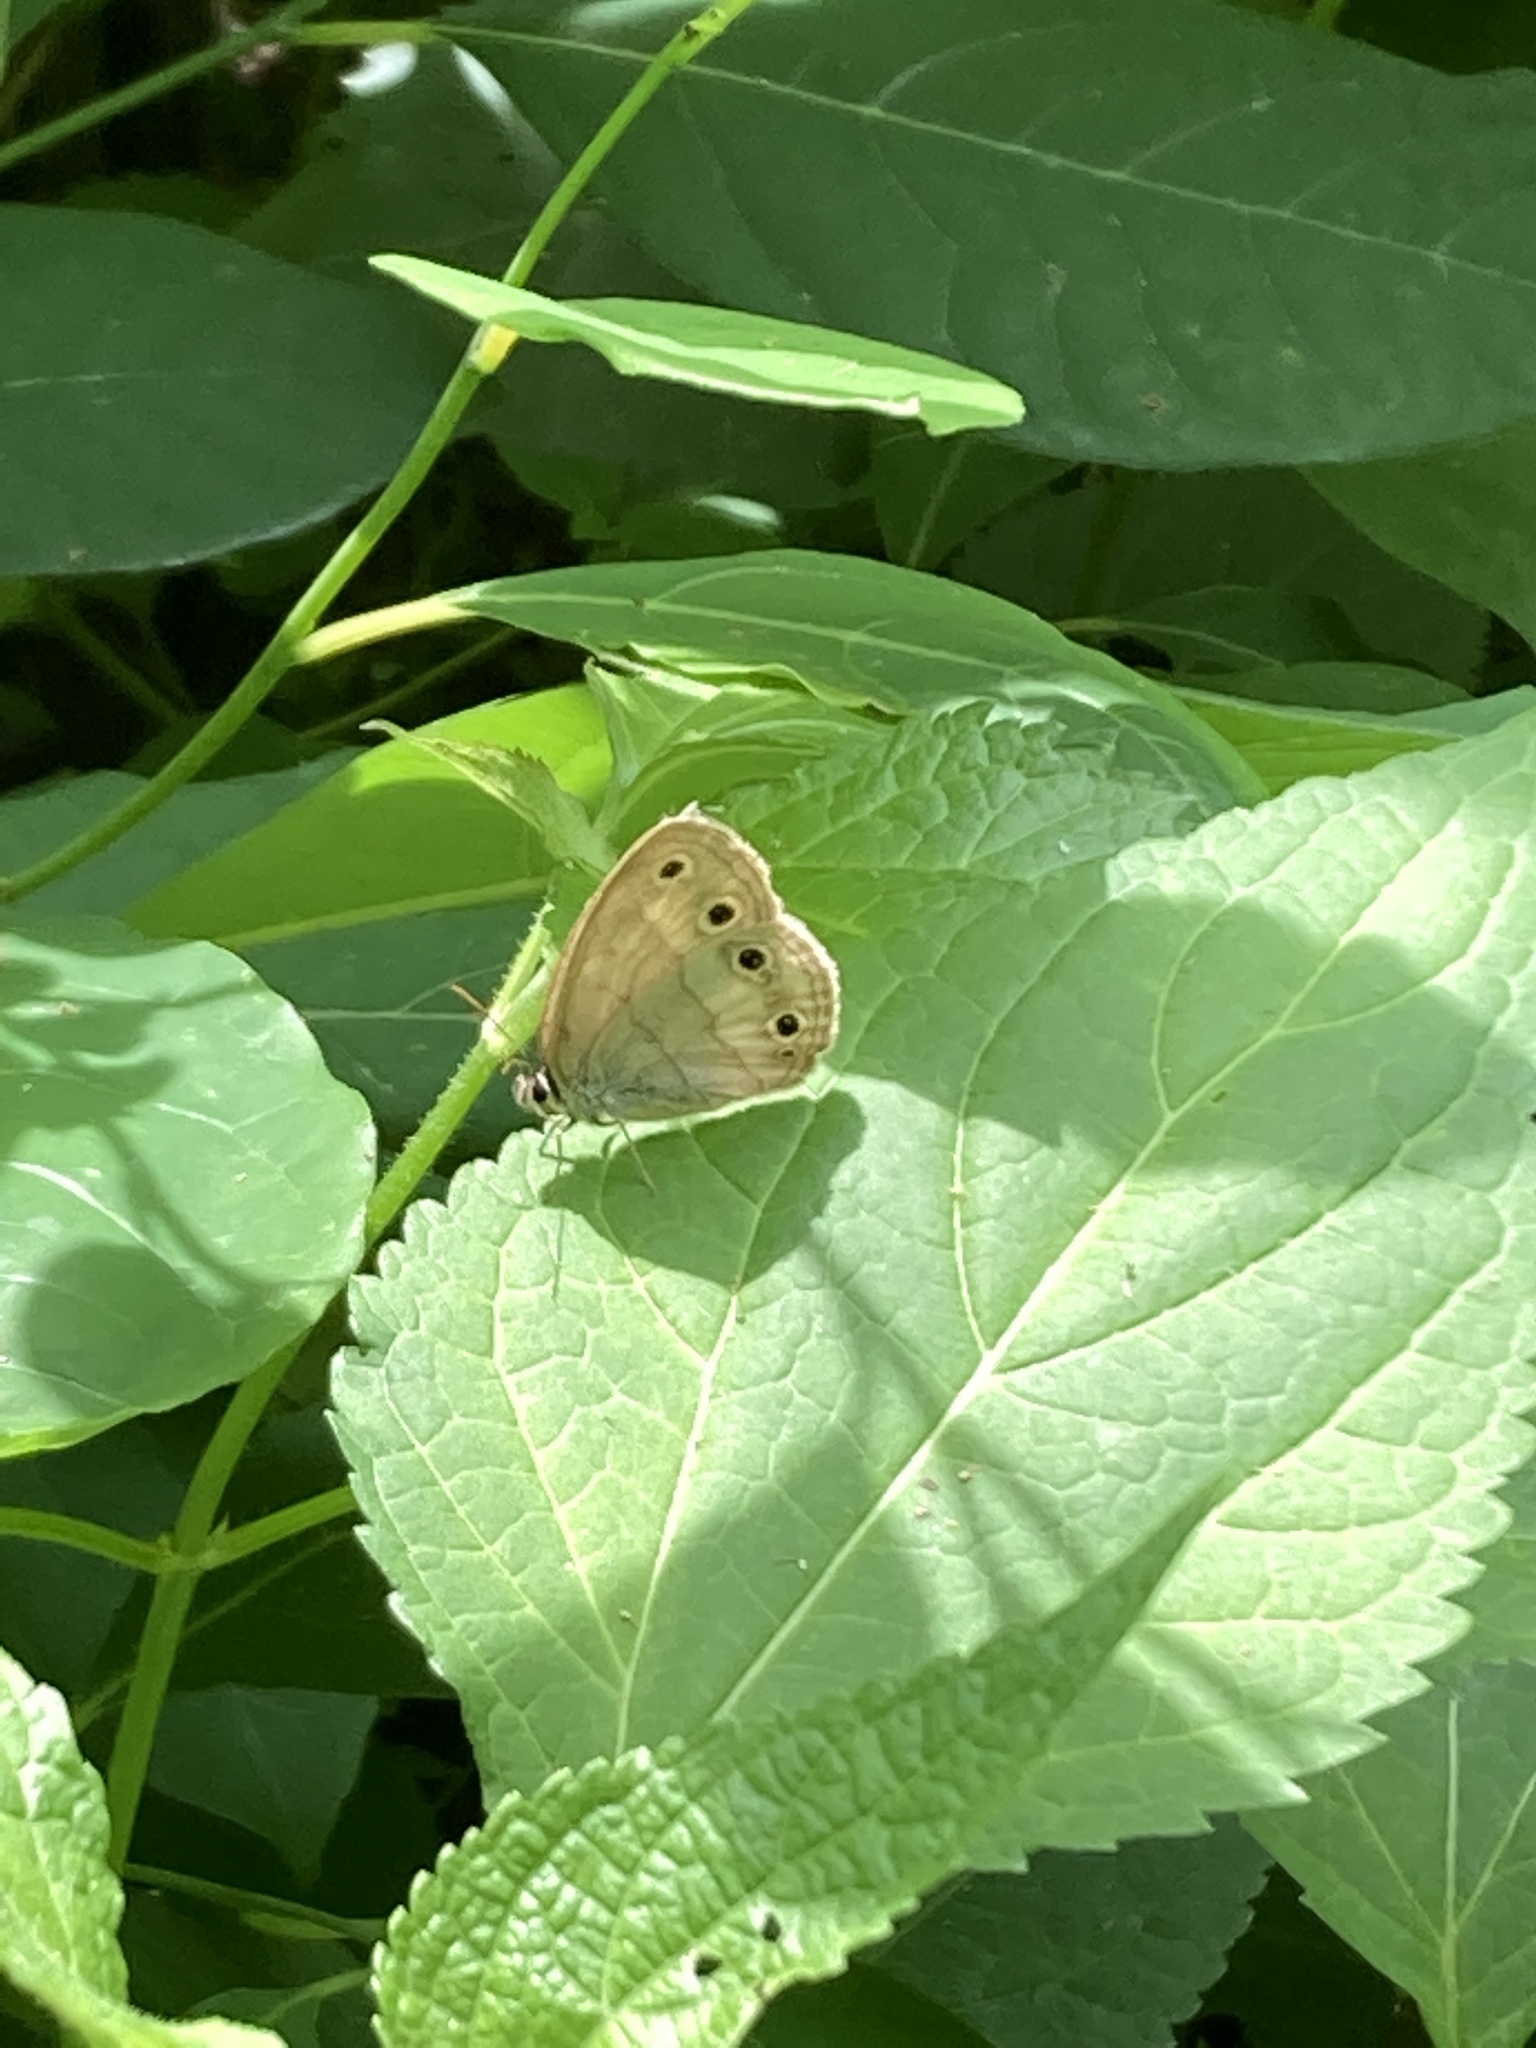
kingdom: Animalia
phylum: Arthropoda
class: Insecta
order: Lepidoptera
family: Nymphalidae
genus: Euptychia
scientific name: Euptychia cymela
